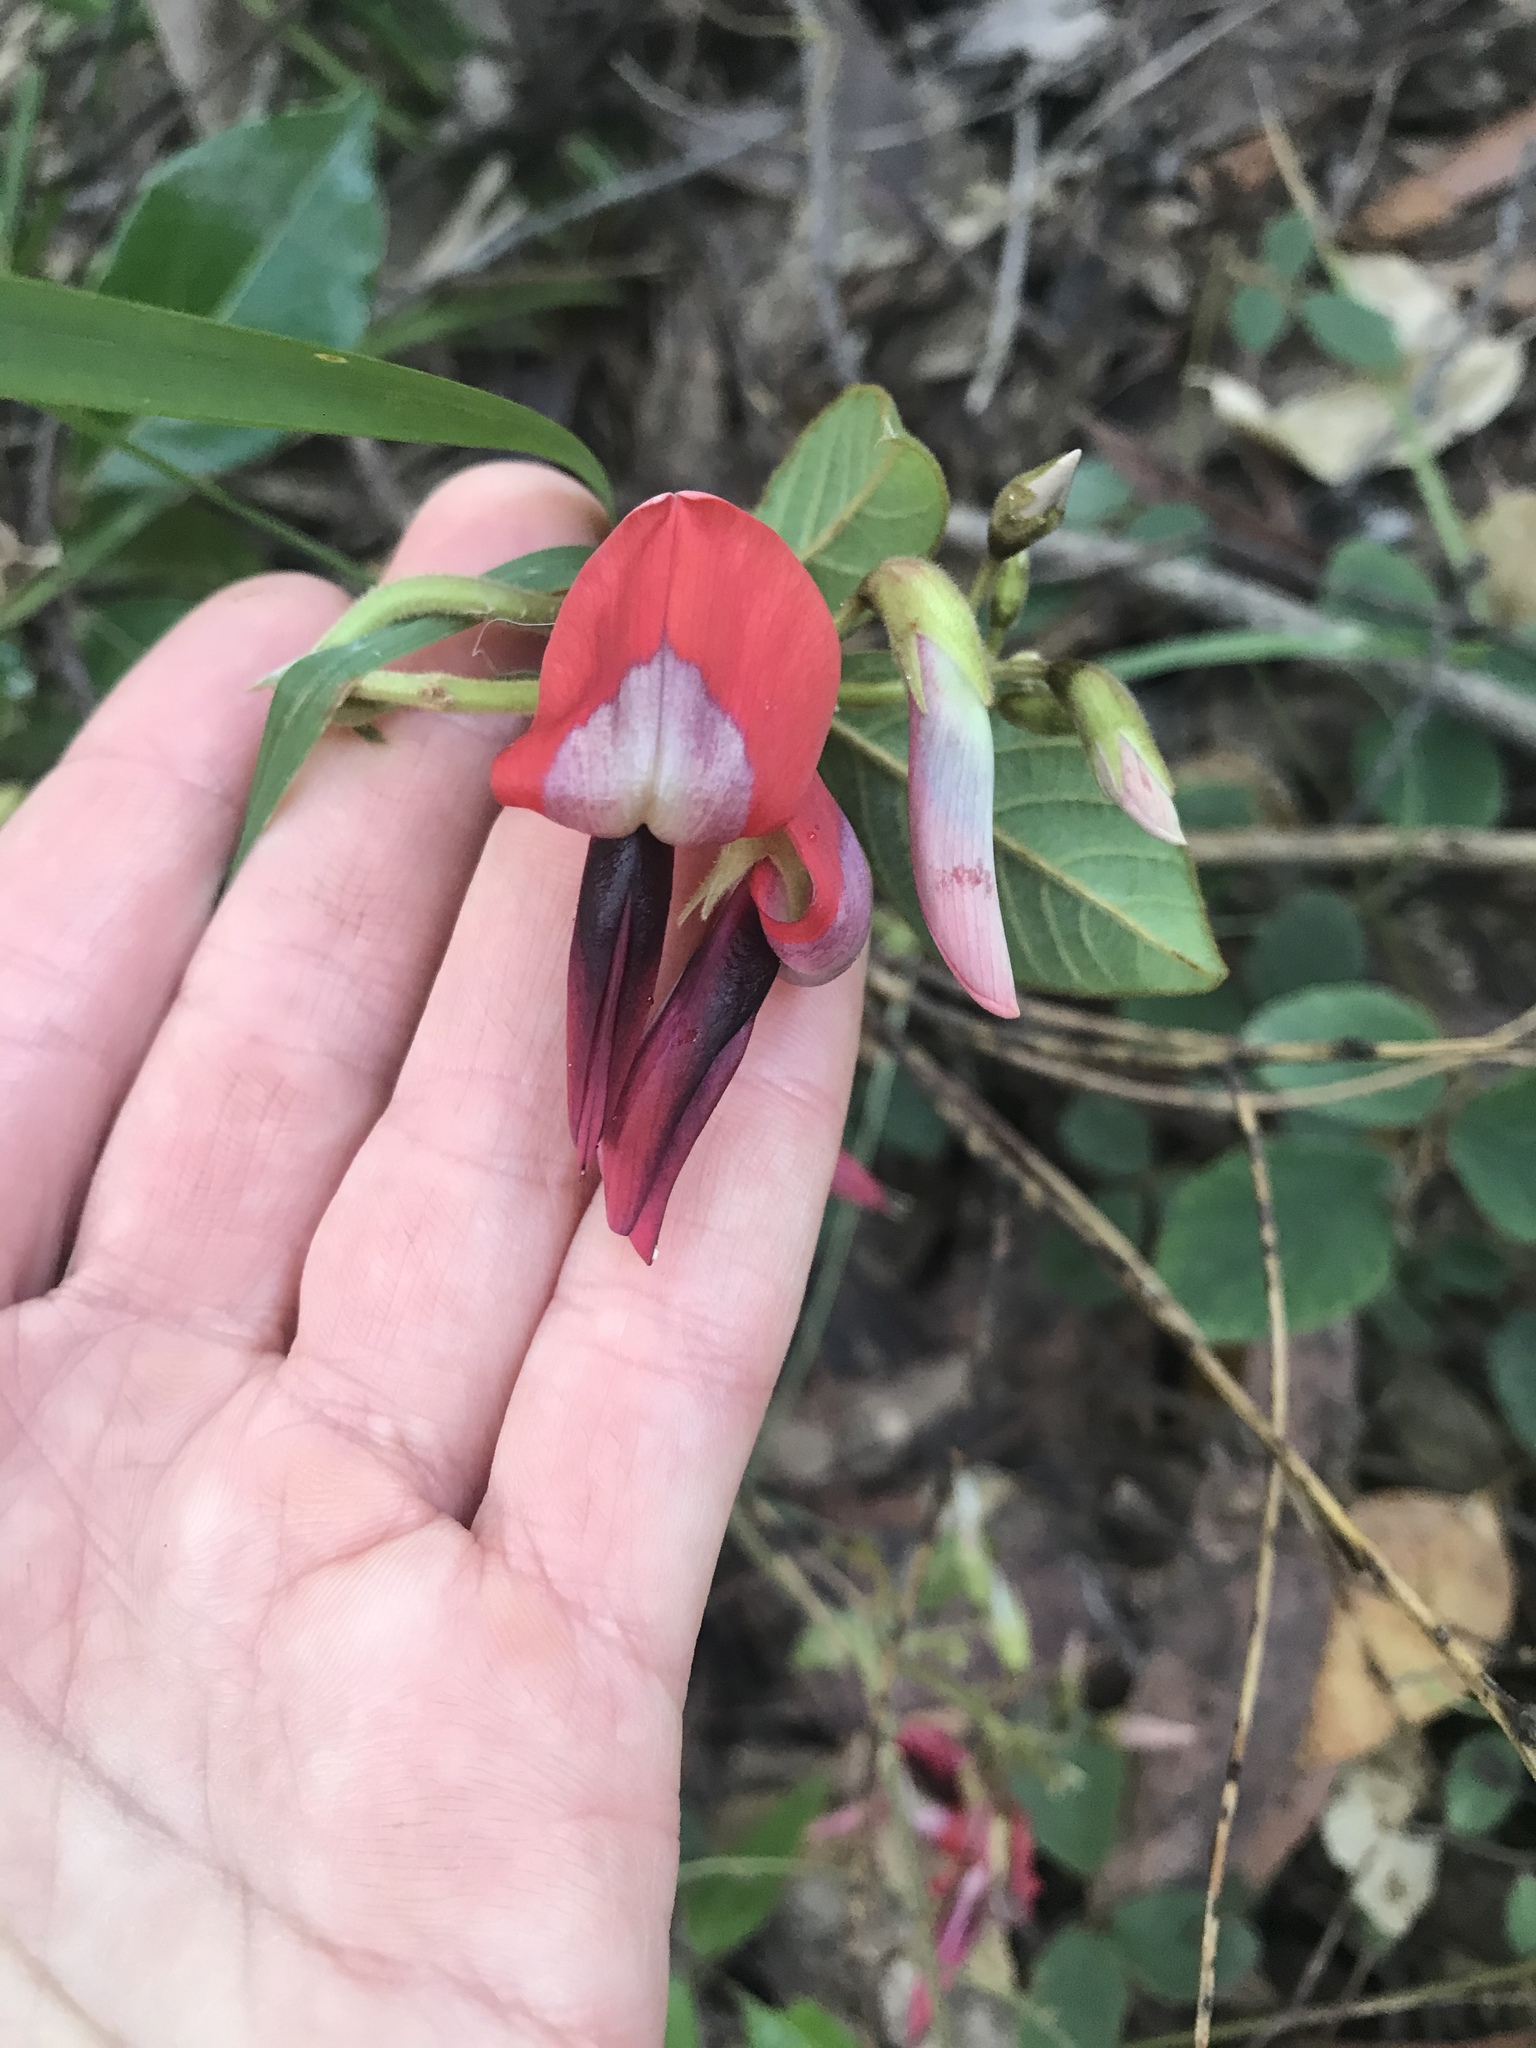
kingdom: Plantae
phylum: Tracheophyta
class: Magnoliopsida
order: Fabales
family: Fabaceae
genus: Kennedia
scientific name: Kennedia rubicunda
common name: Red kennedy-pea
